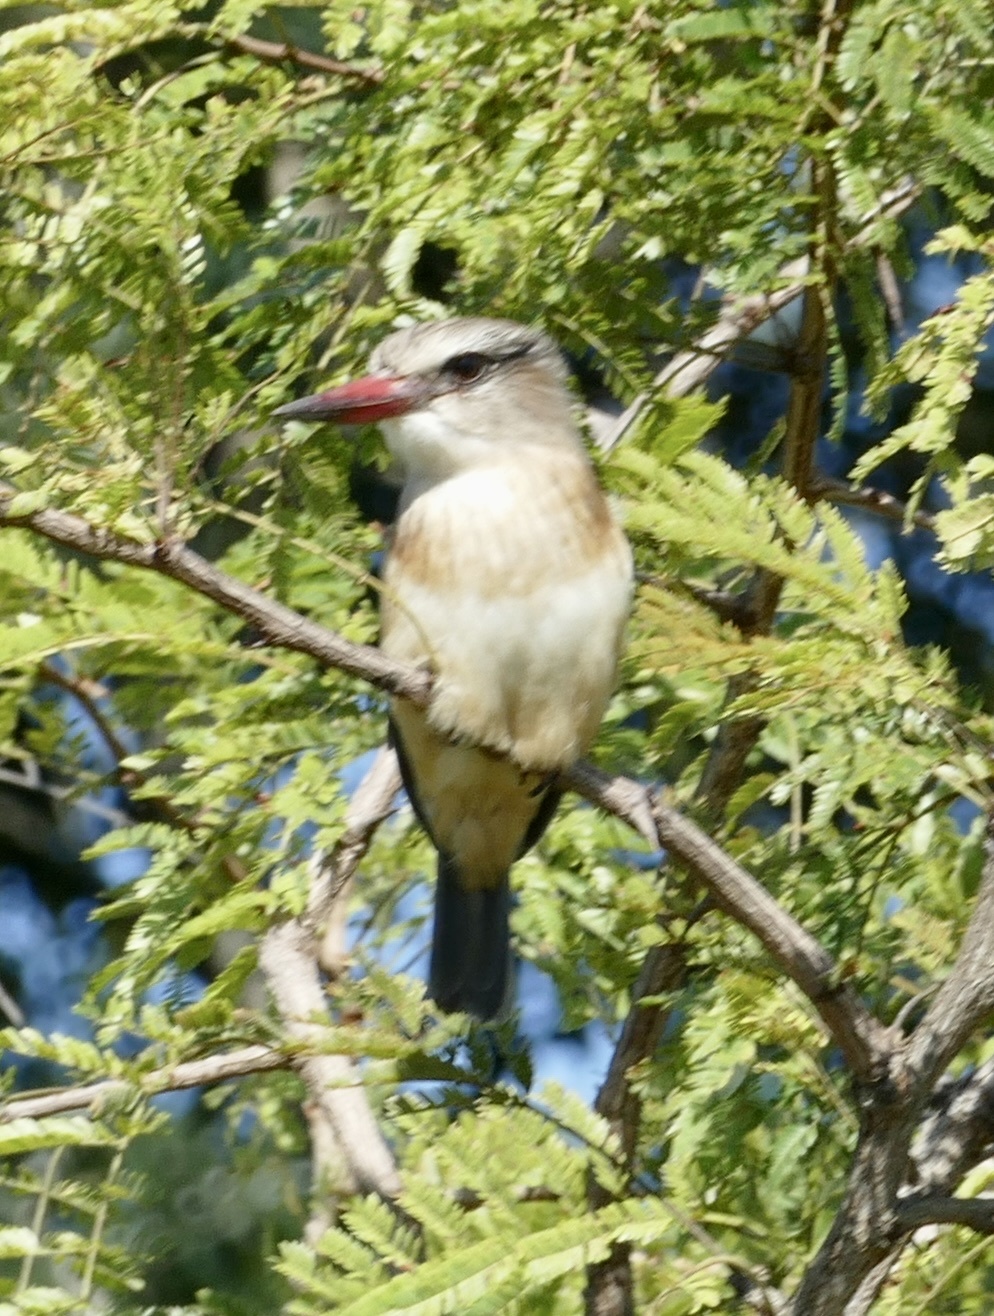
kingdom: Animalia
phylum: Chordata
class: Aves
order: Coraciiformes
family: Alcedinidae
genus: Halcyon
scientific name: Halcyon albiventris
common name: Brown-hooded kingfisher
